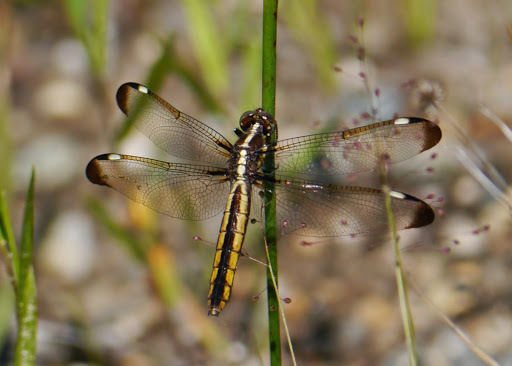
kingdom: Animalia
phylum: Arthropoda
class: Insecta
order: Odonata
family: Libellulidae
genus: Libellula
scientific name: Libellula cyanea
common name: Spangled skimmer
